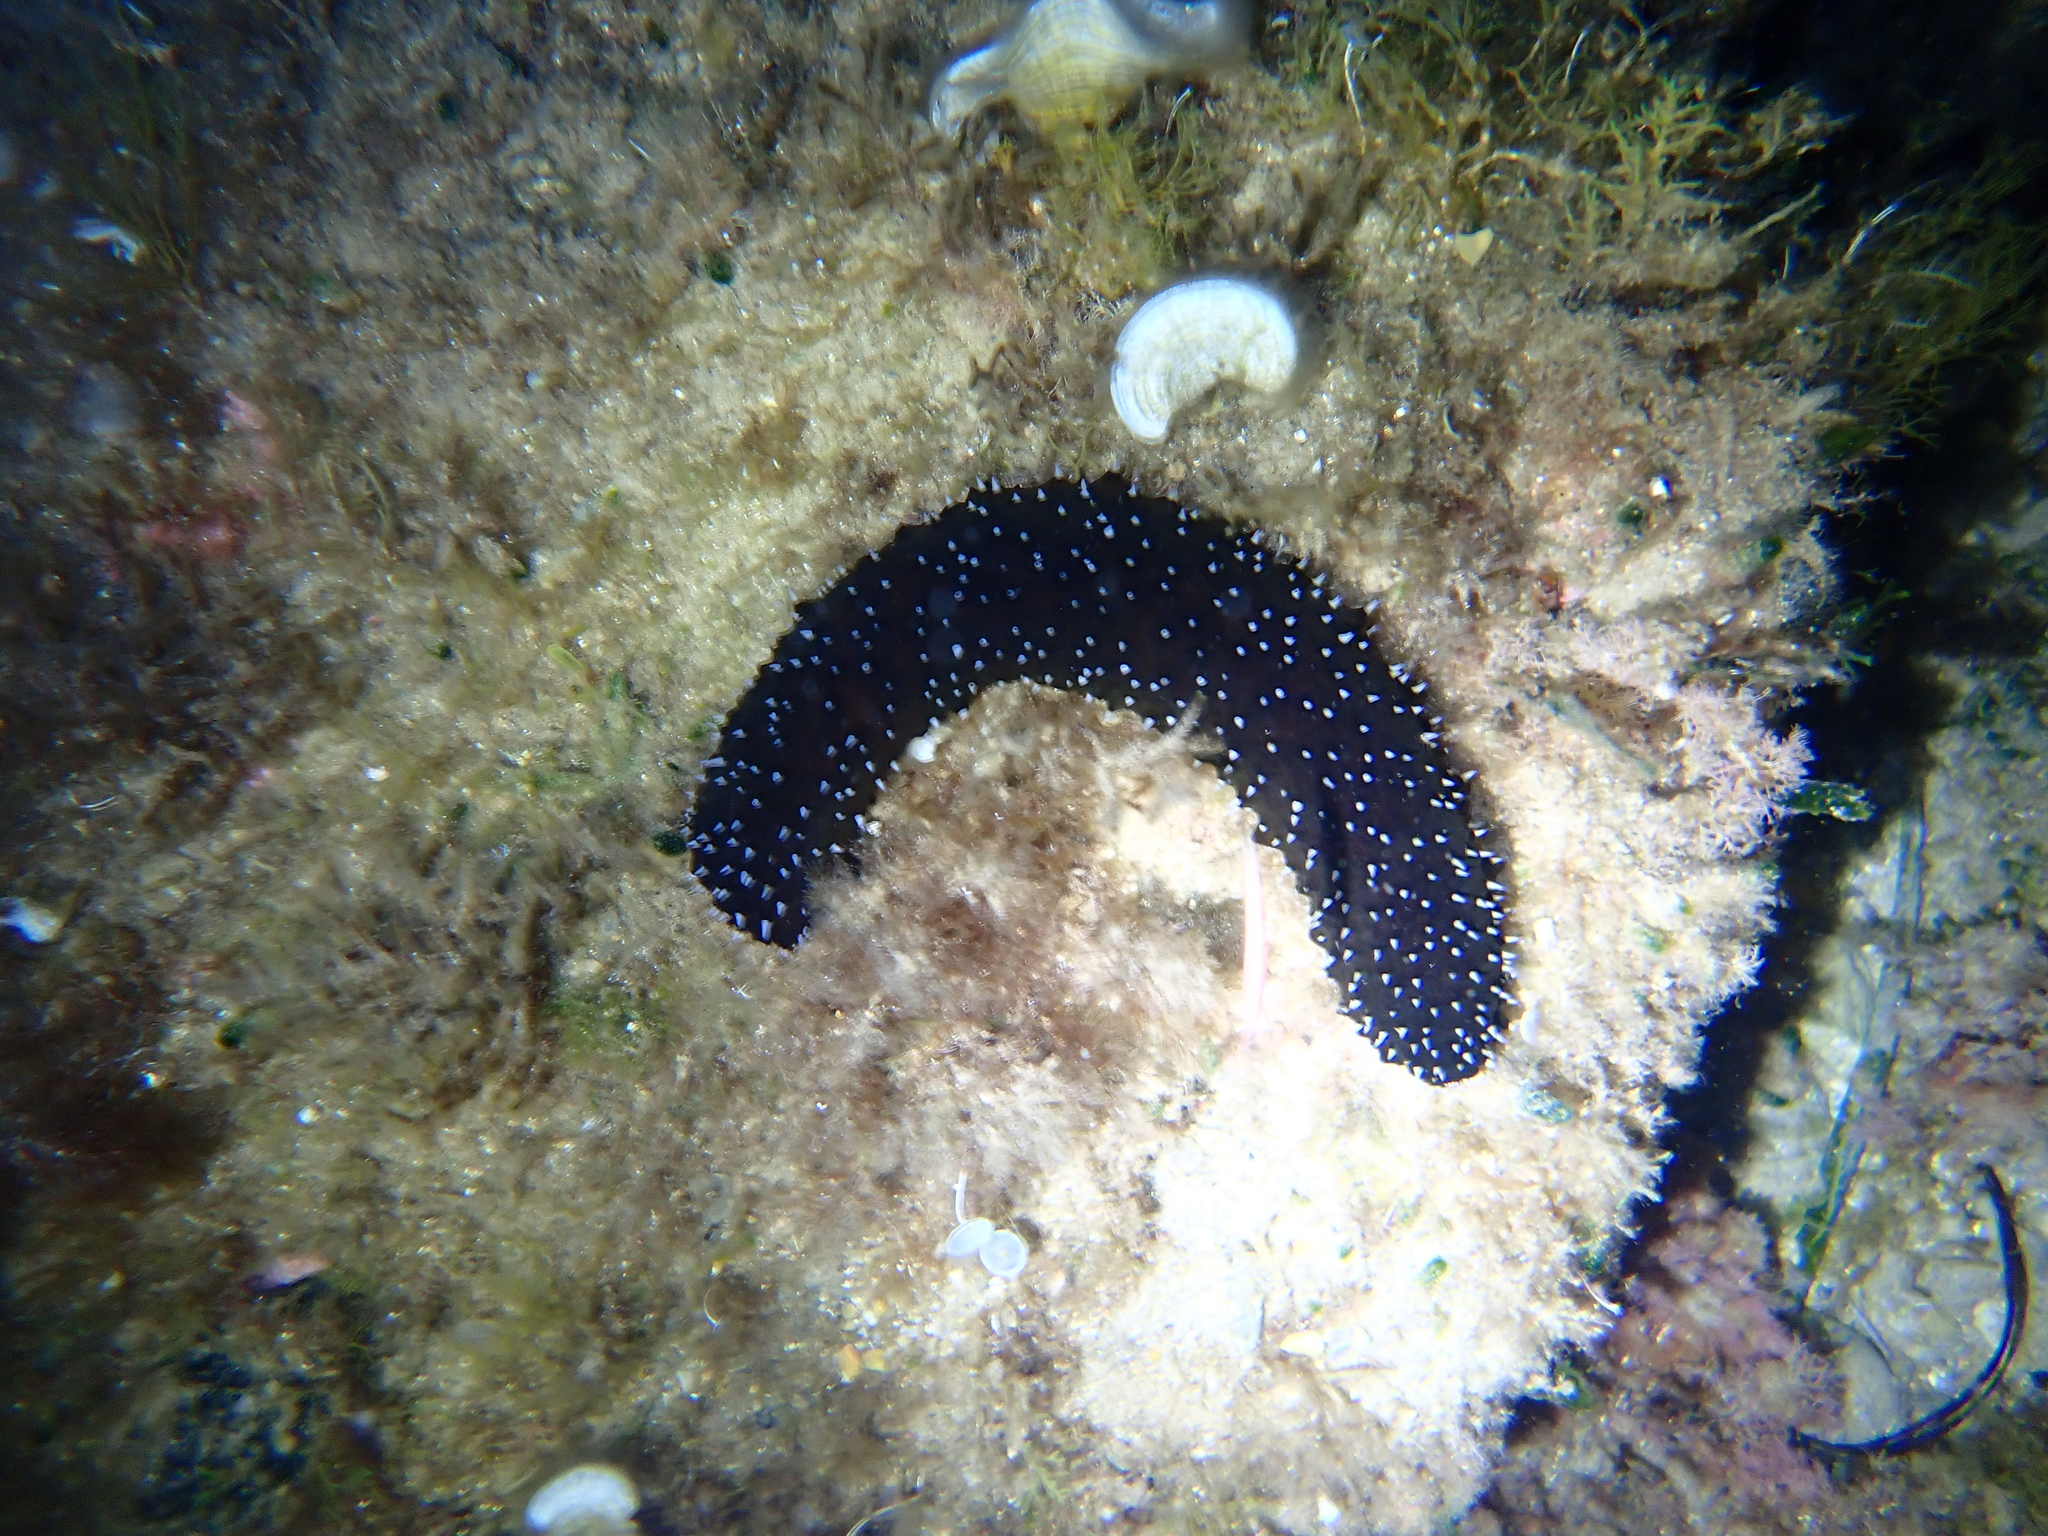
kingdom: Animalia
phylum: Echinodermata
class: Holothuroidea
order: Holothuriida
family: Holothuriidae
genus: Holothuria
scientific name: Holothuria forskali
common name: Black sea cucumber
